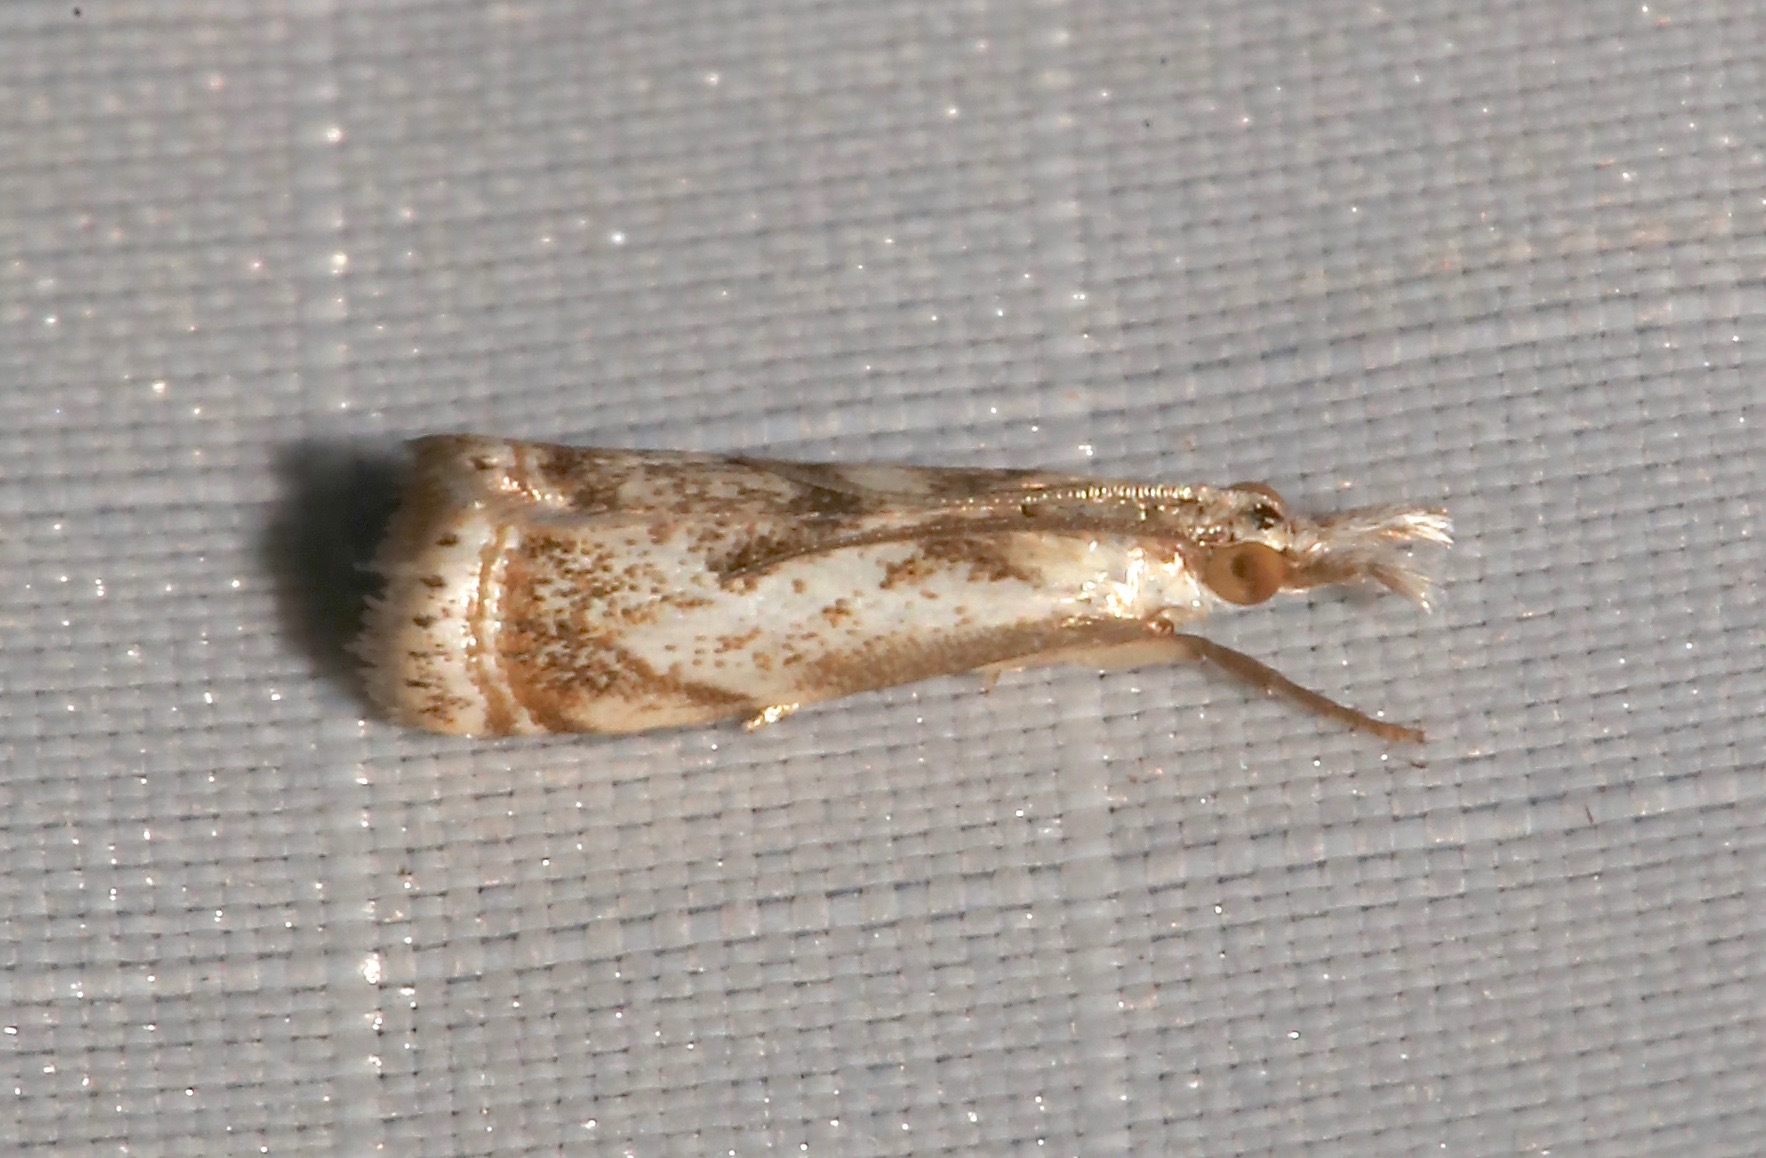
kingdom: Animalia
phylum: Arthropoda
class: Insecta
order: Lepidoptera
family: Crambidae
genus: Microcrambus
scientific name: Microcrambus elegans
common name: Elegant grass-veneer
